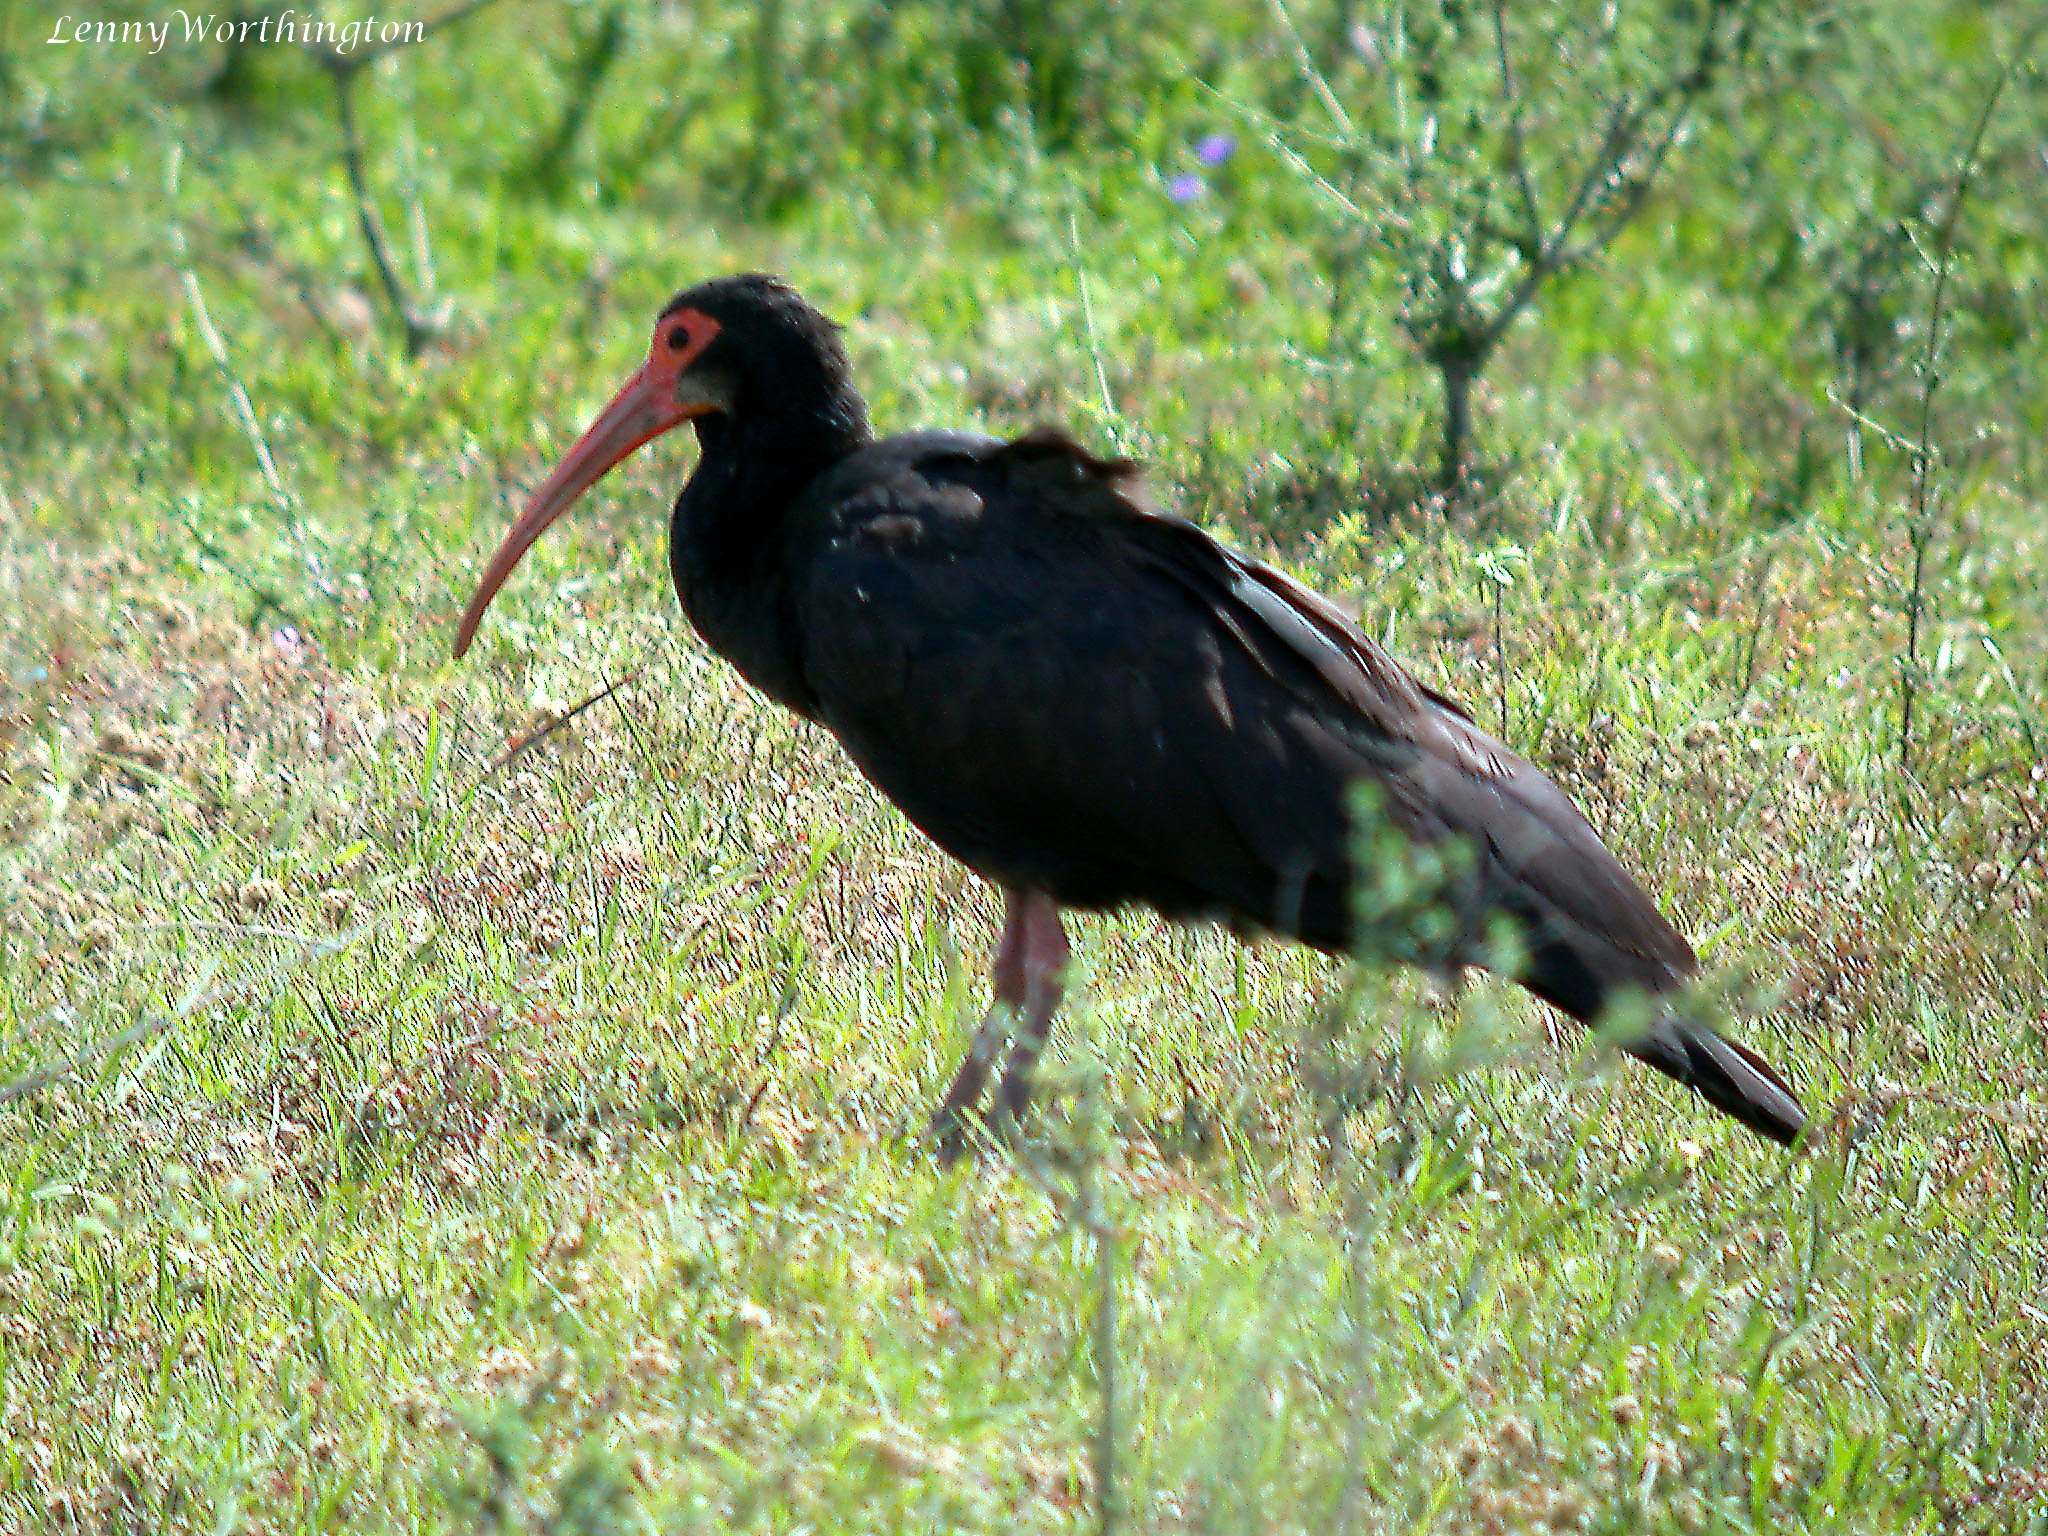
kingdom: Animalia
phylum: Chordata
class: Aves
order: Pelecaniformes
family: Threskiornithidae
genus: Cercibis
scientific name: Cercibis oxycerca
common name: Sharp-tailed ibis
